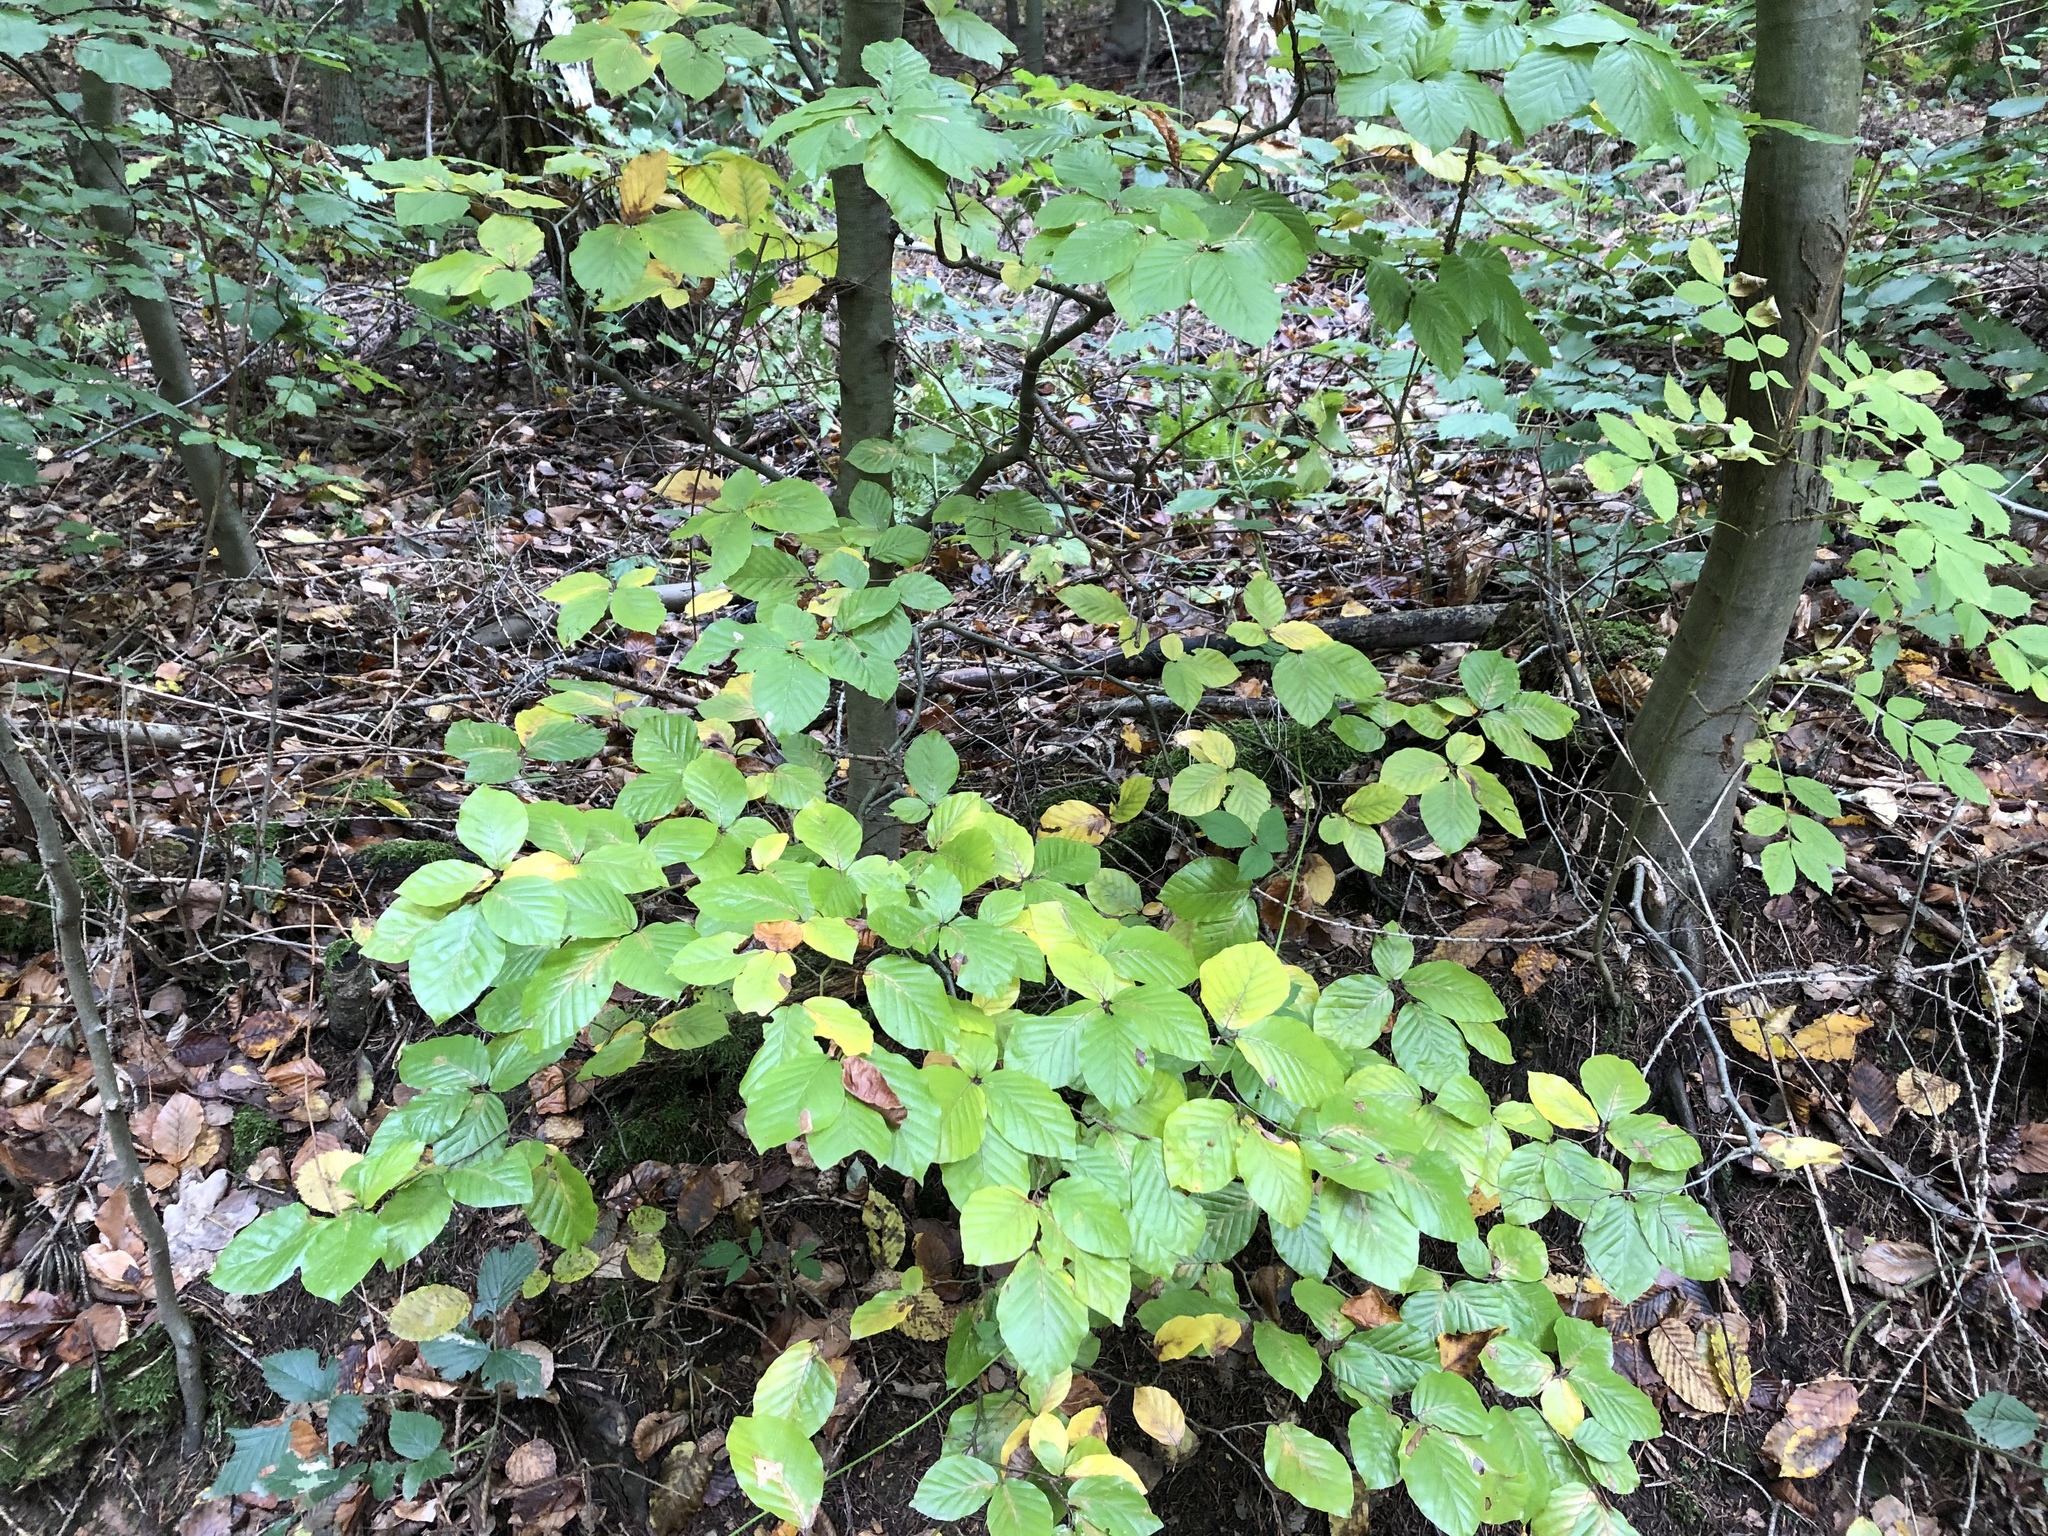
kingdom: Plantae
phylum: Tracheophyta
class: Magnoliopsida
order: Fagales
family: Fagaceae
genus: Fagus
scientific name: Fagus sylvatica
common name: Beech
